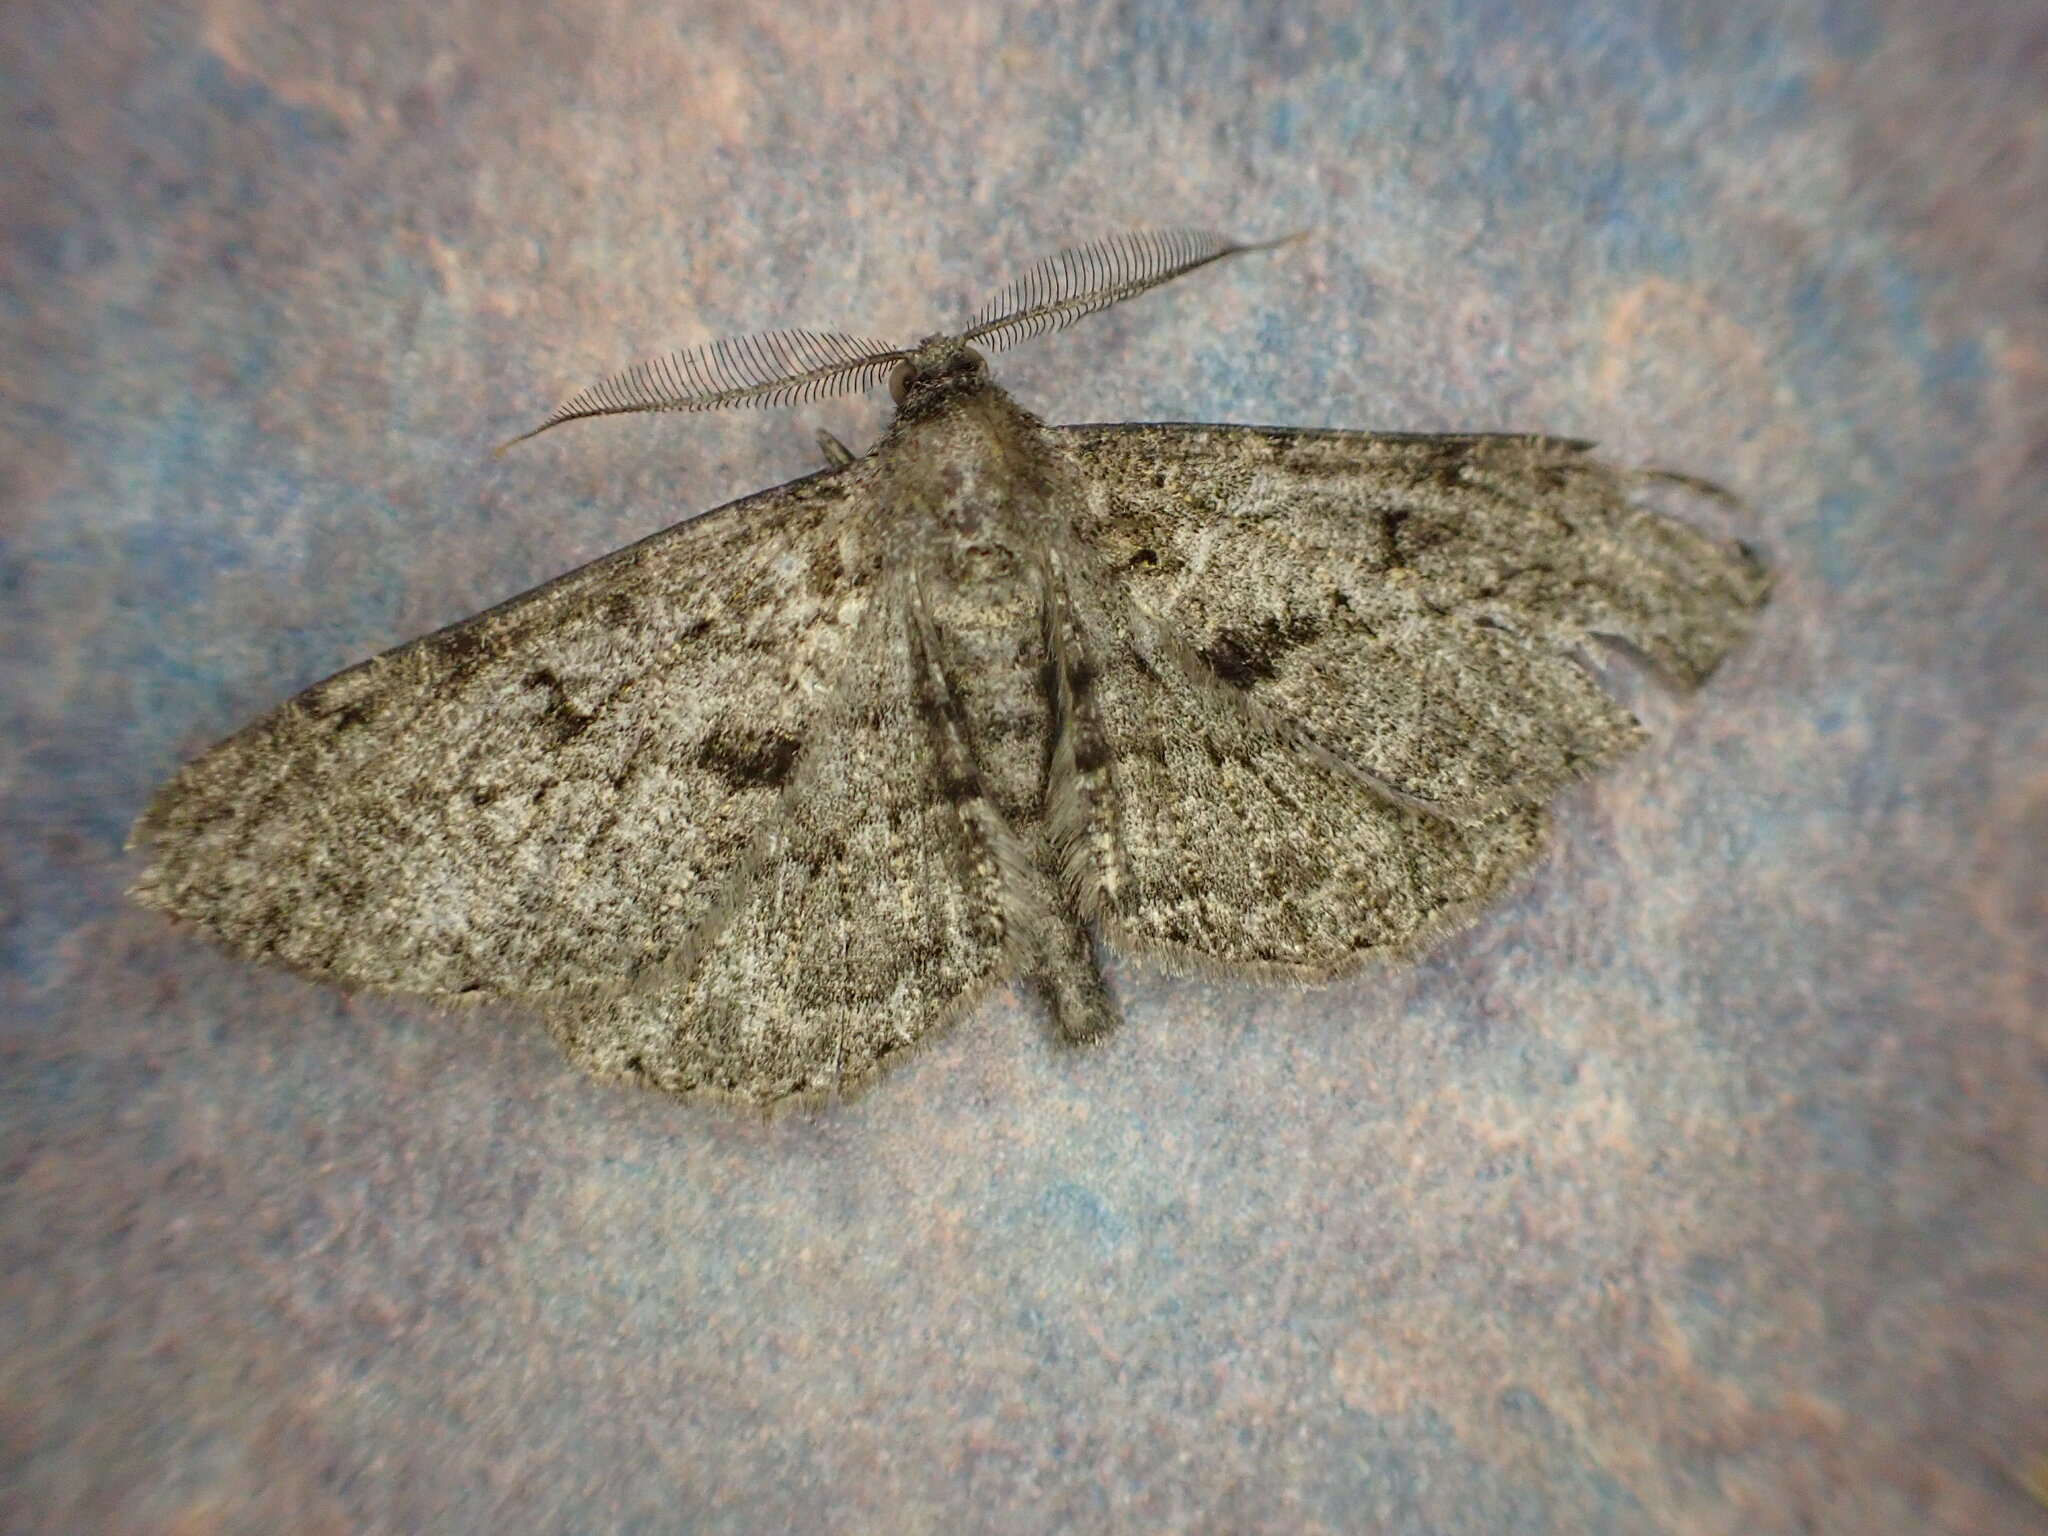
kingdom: Animalia
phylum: Arthropoda
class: Insecta
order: Lepidoptera
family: Geometridae
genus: Peribatodes
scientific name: Peribatodes rhomboidaria
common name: Willow beauty
